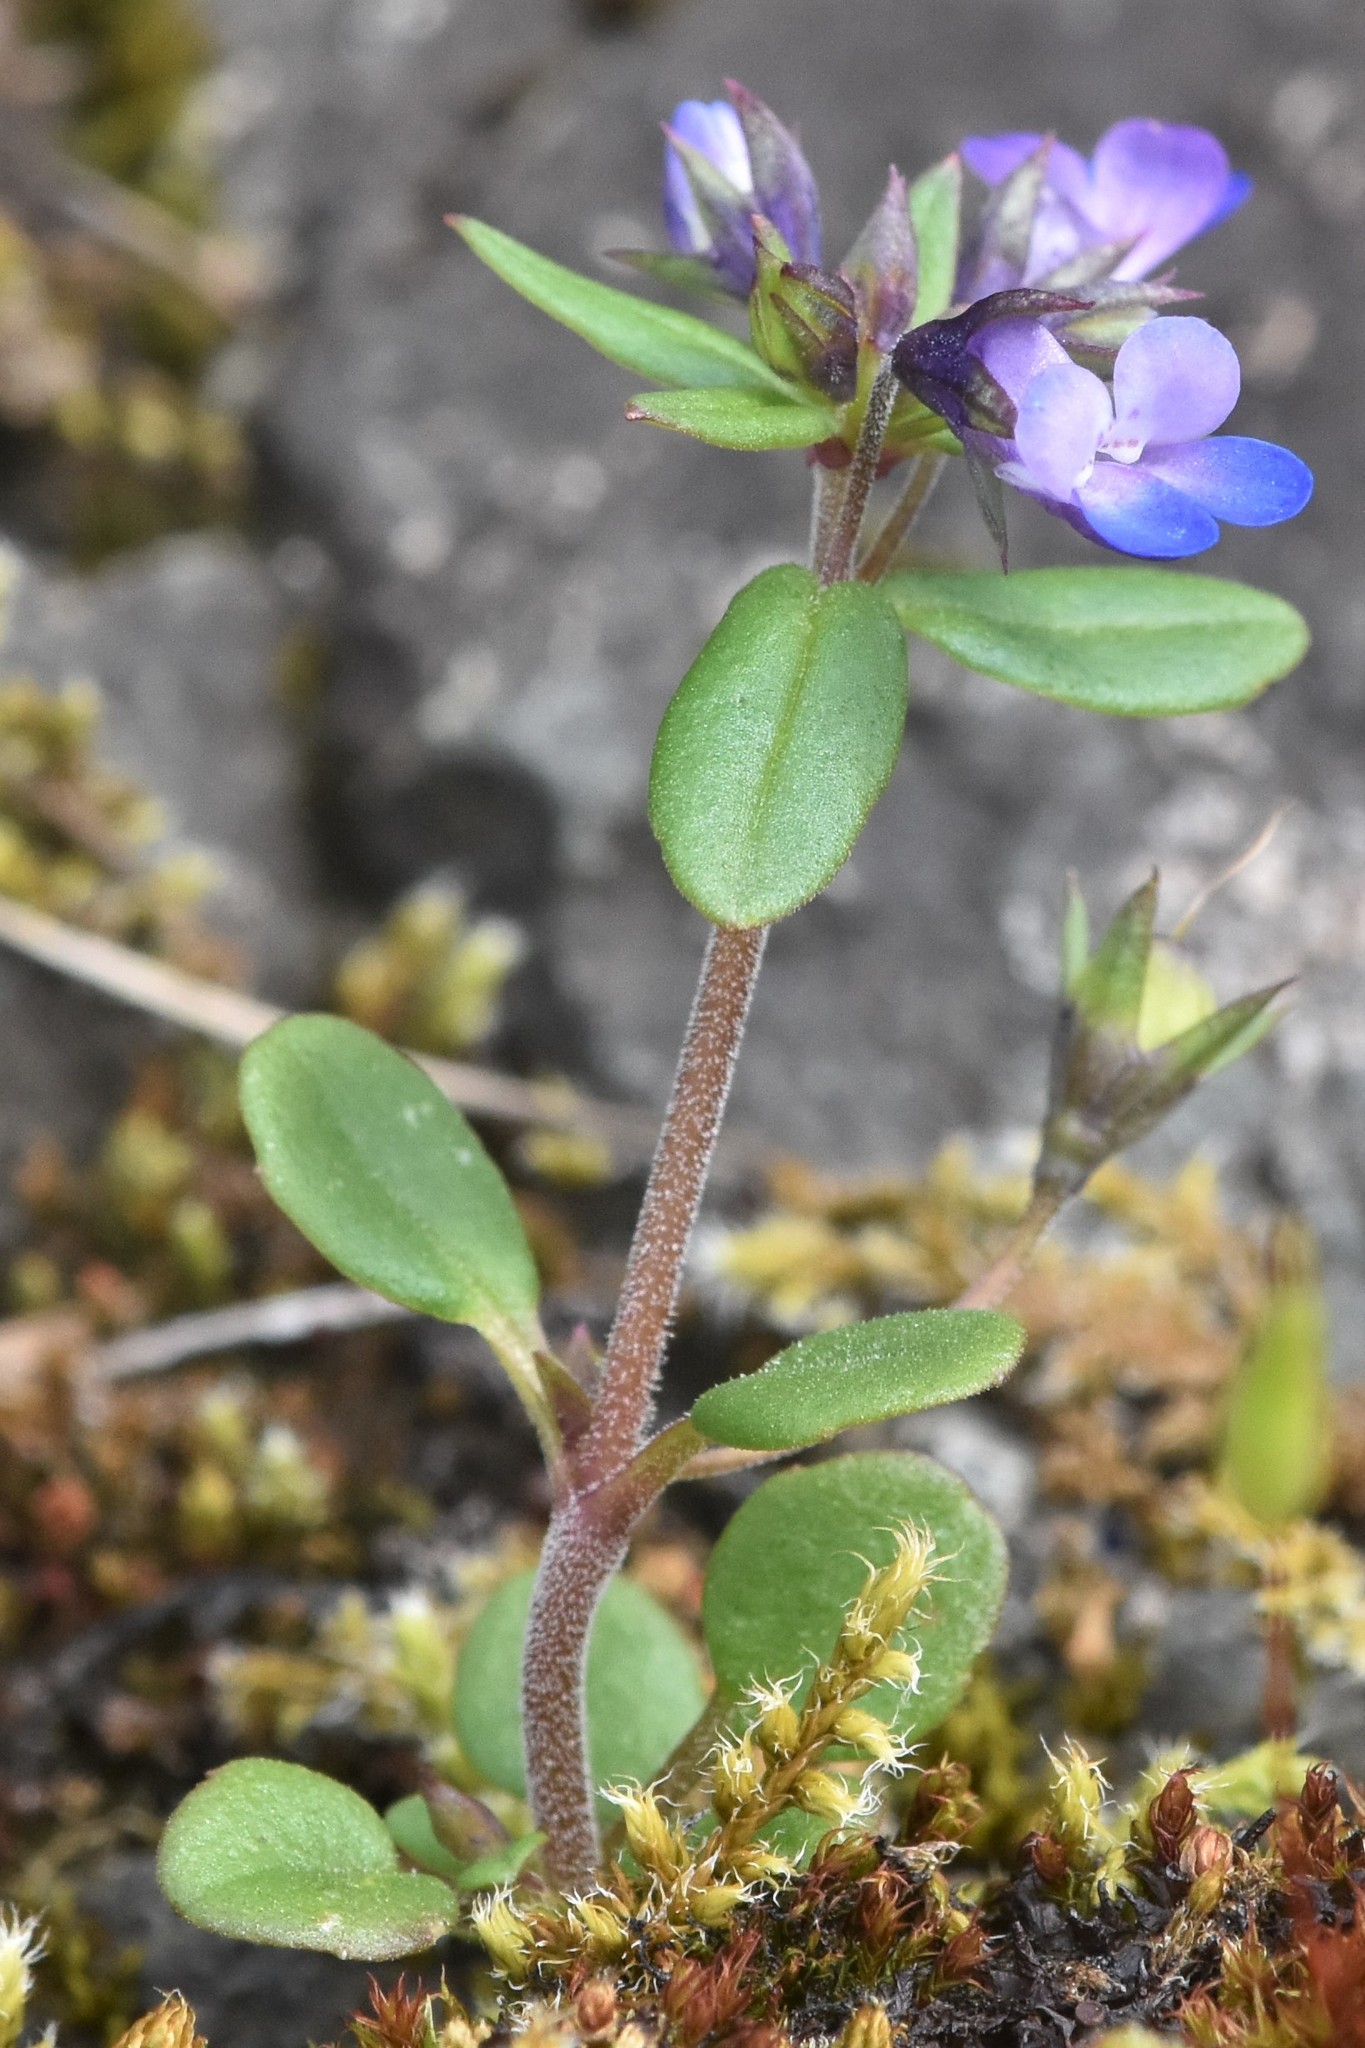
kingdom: Plantae
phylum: Tracheophyta
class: Magnoliopsida
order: Lamiales
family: Plantaginaceae
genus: Collinsia
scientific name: Collinsia parviflora
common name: Blue-lips
